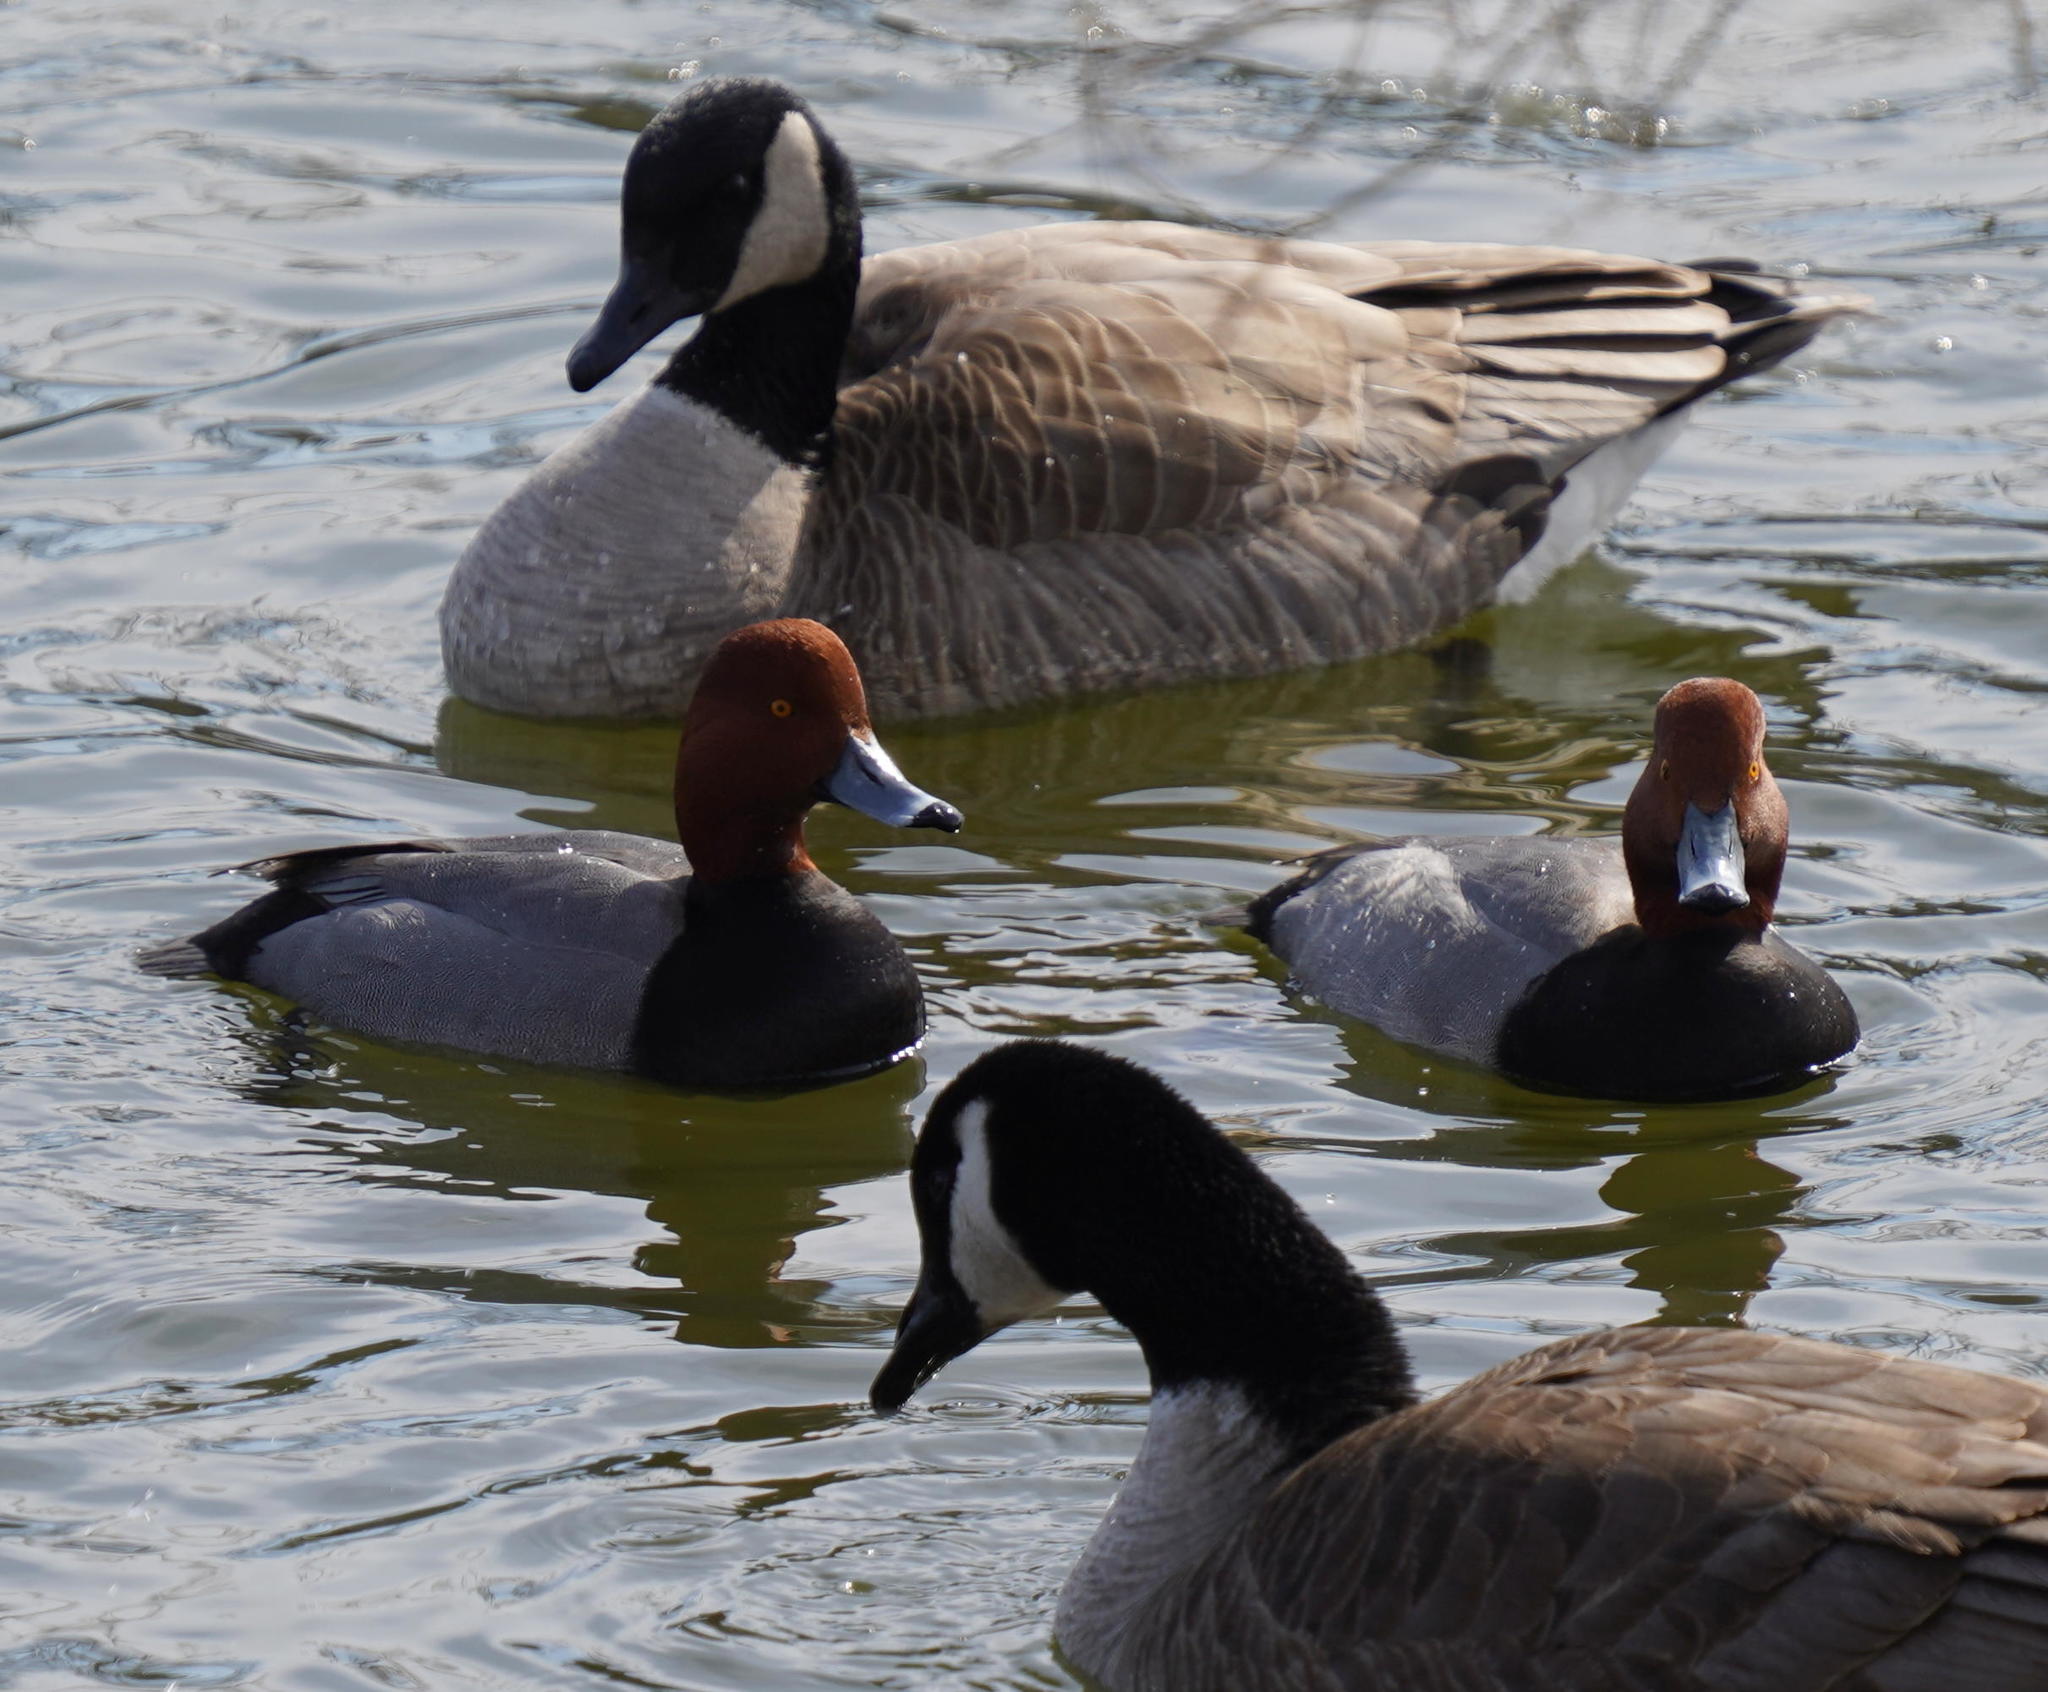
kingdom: Animalia
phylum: Chordata
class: Aves
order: Anseriformes
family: Anatidae
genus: Aythya
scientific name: Aythya americana
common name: Redhead
